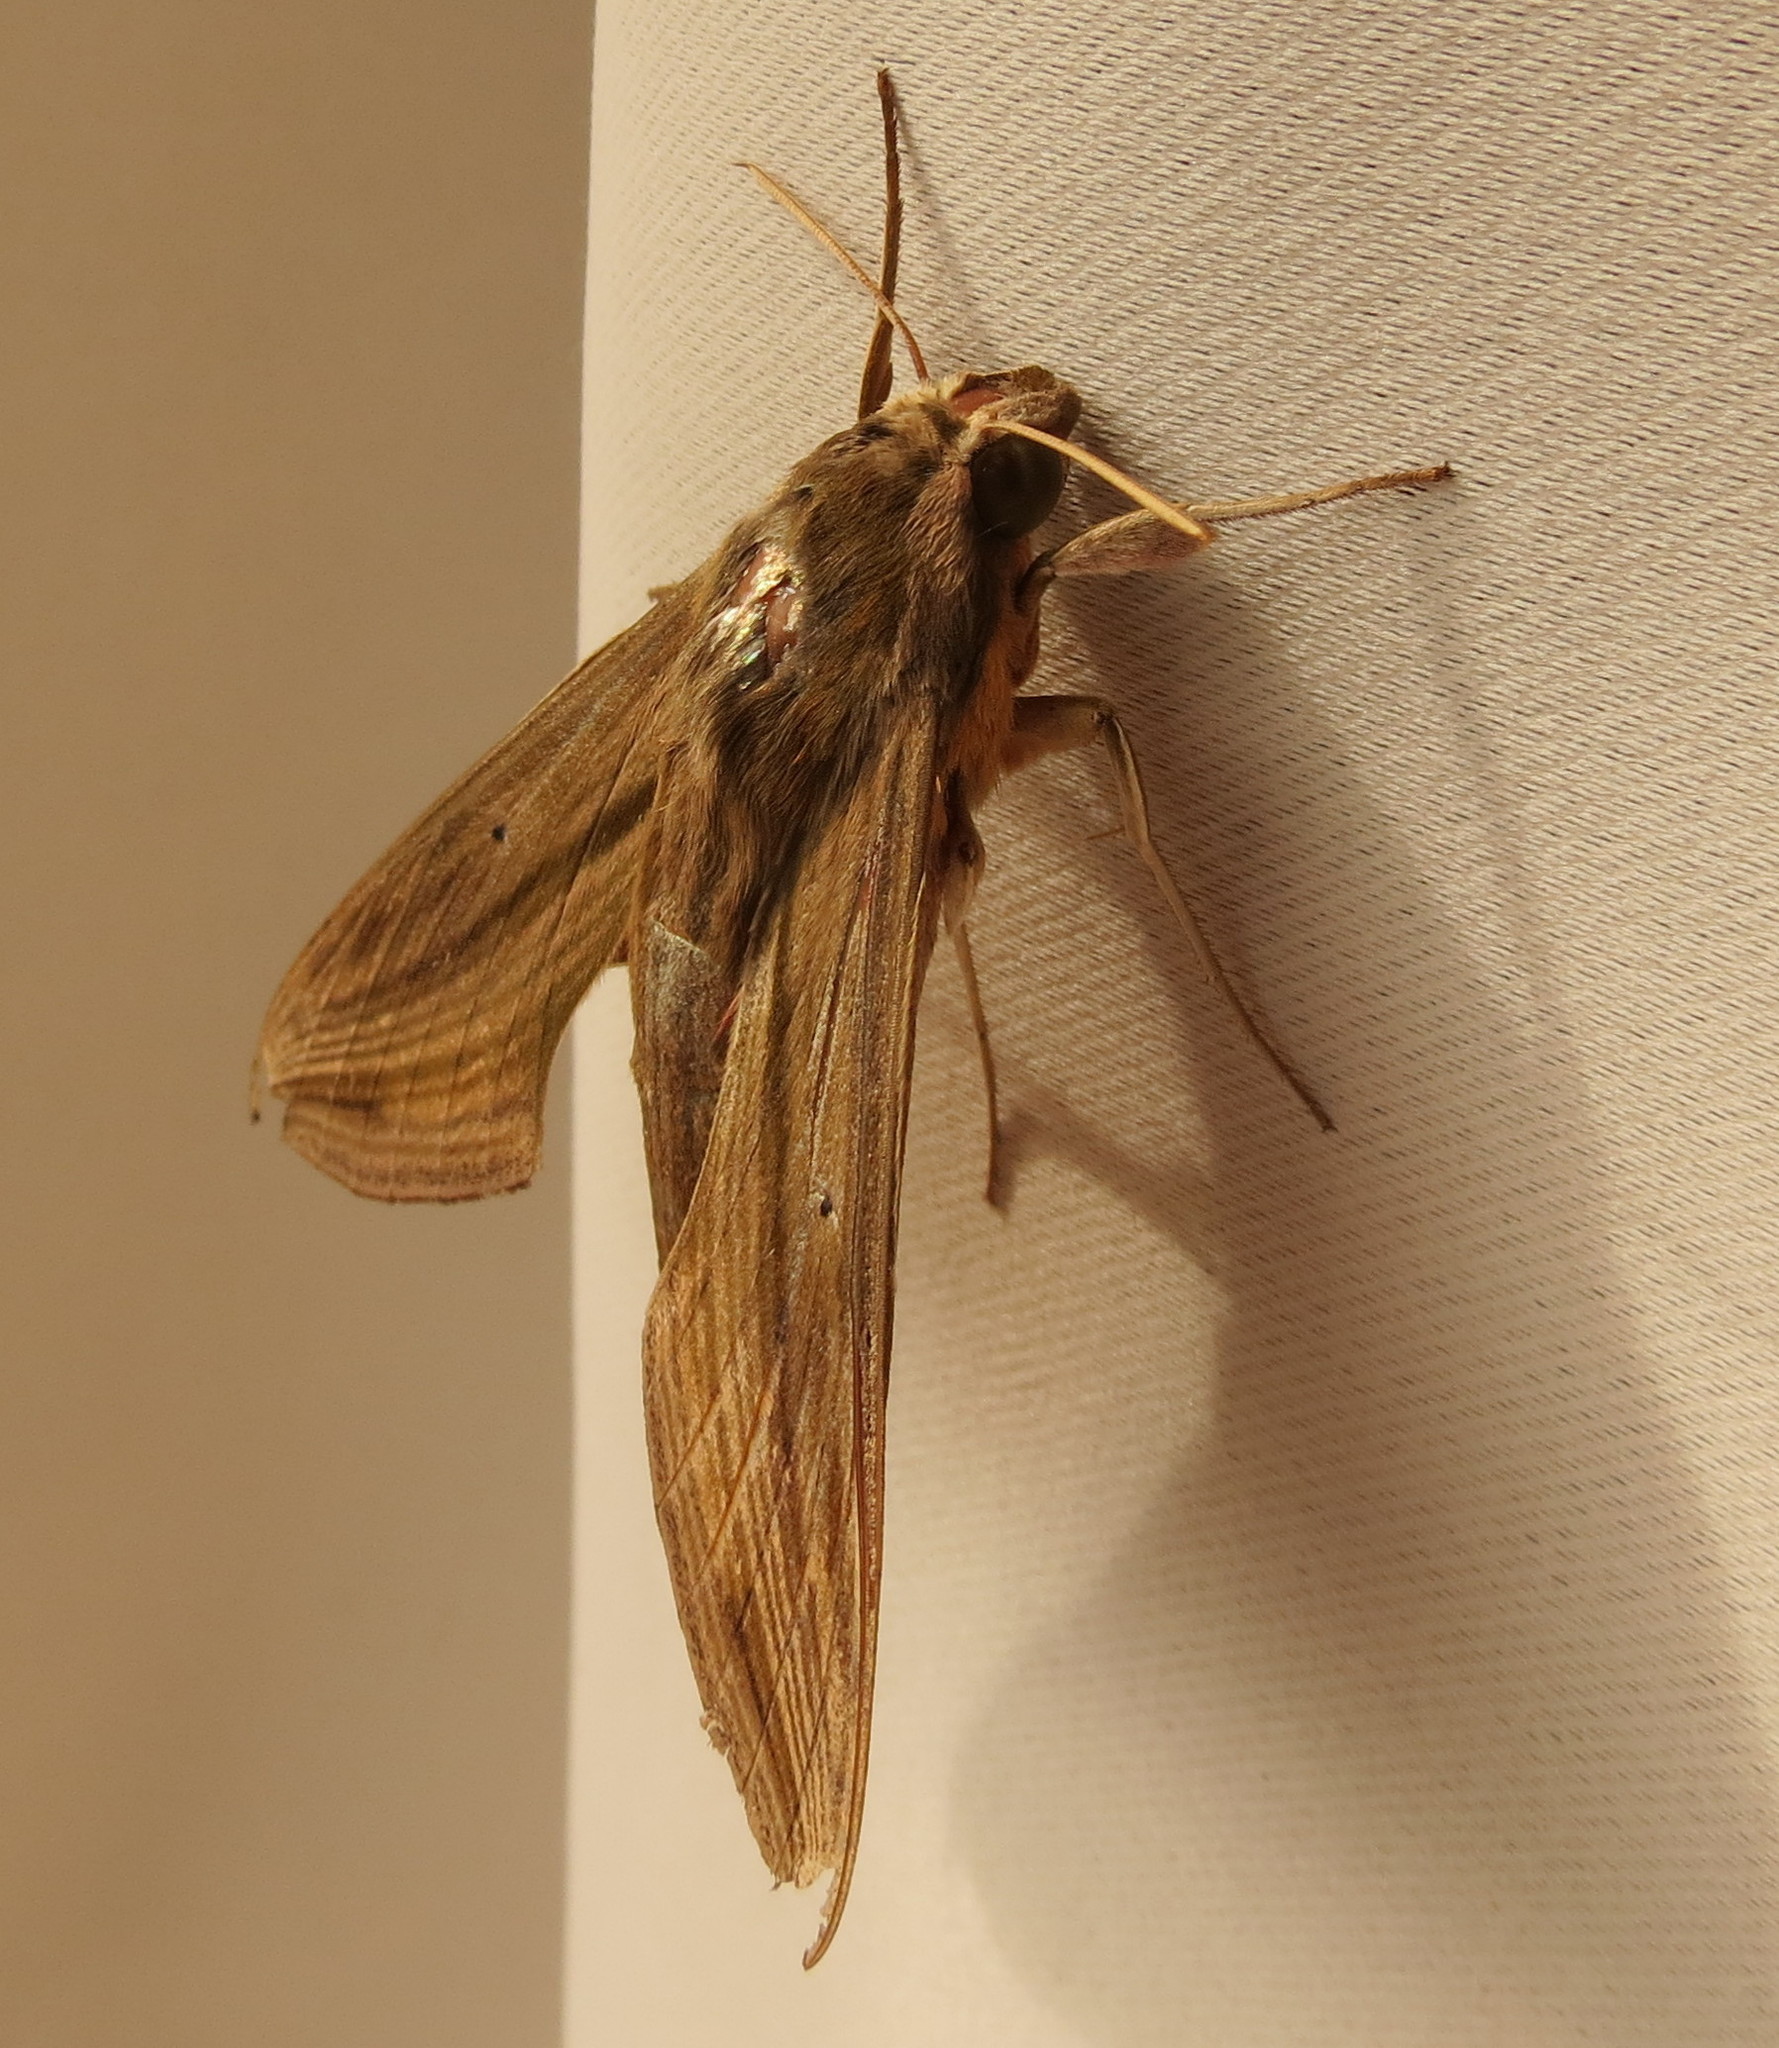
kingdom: Animalia
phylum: Arthropoda
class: Insecta
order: Lepidoptera
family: Sphingidae
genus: Hippotion
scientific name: Hippotion eson
